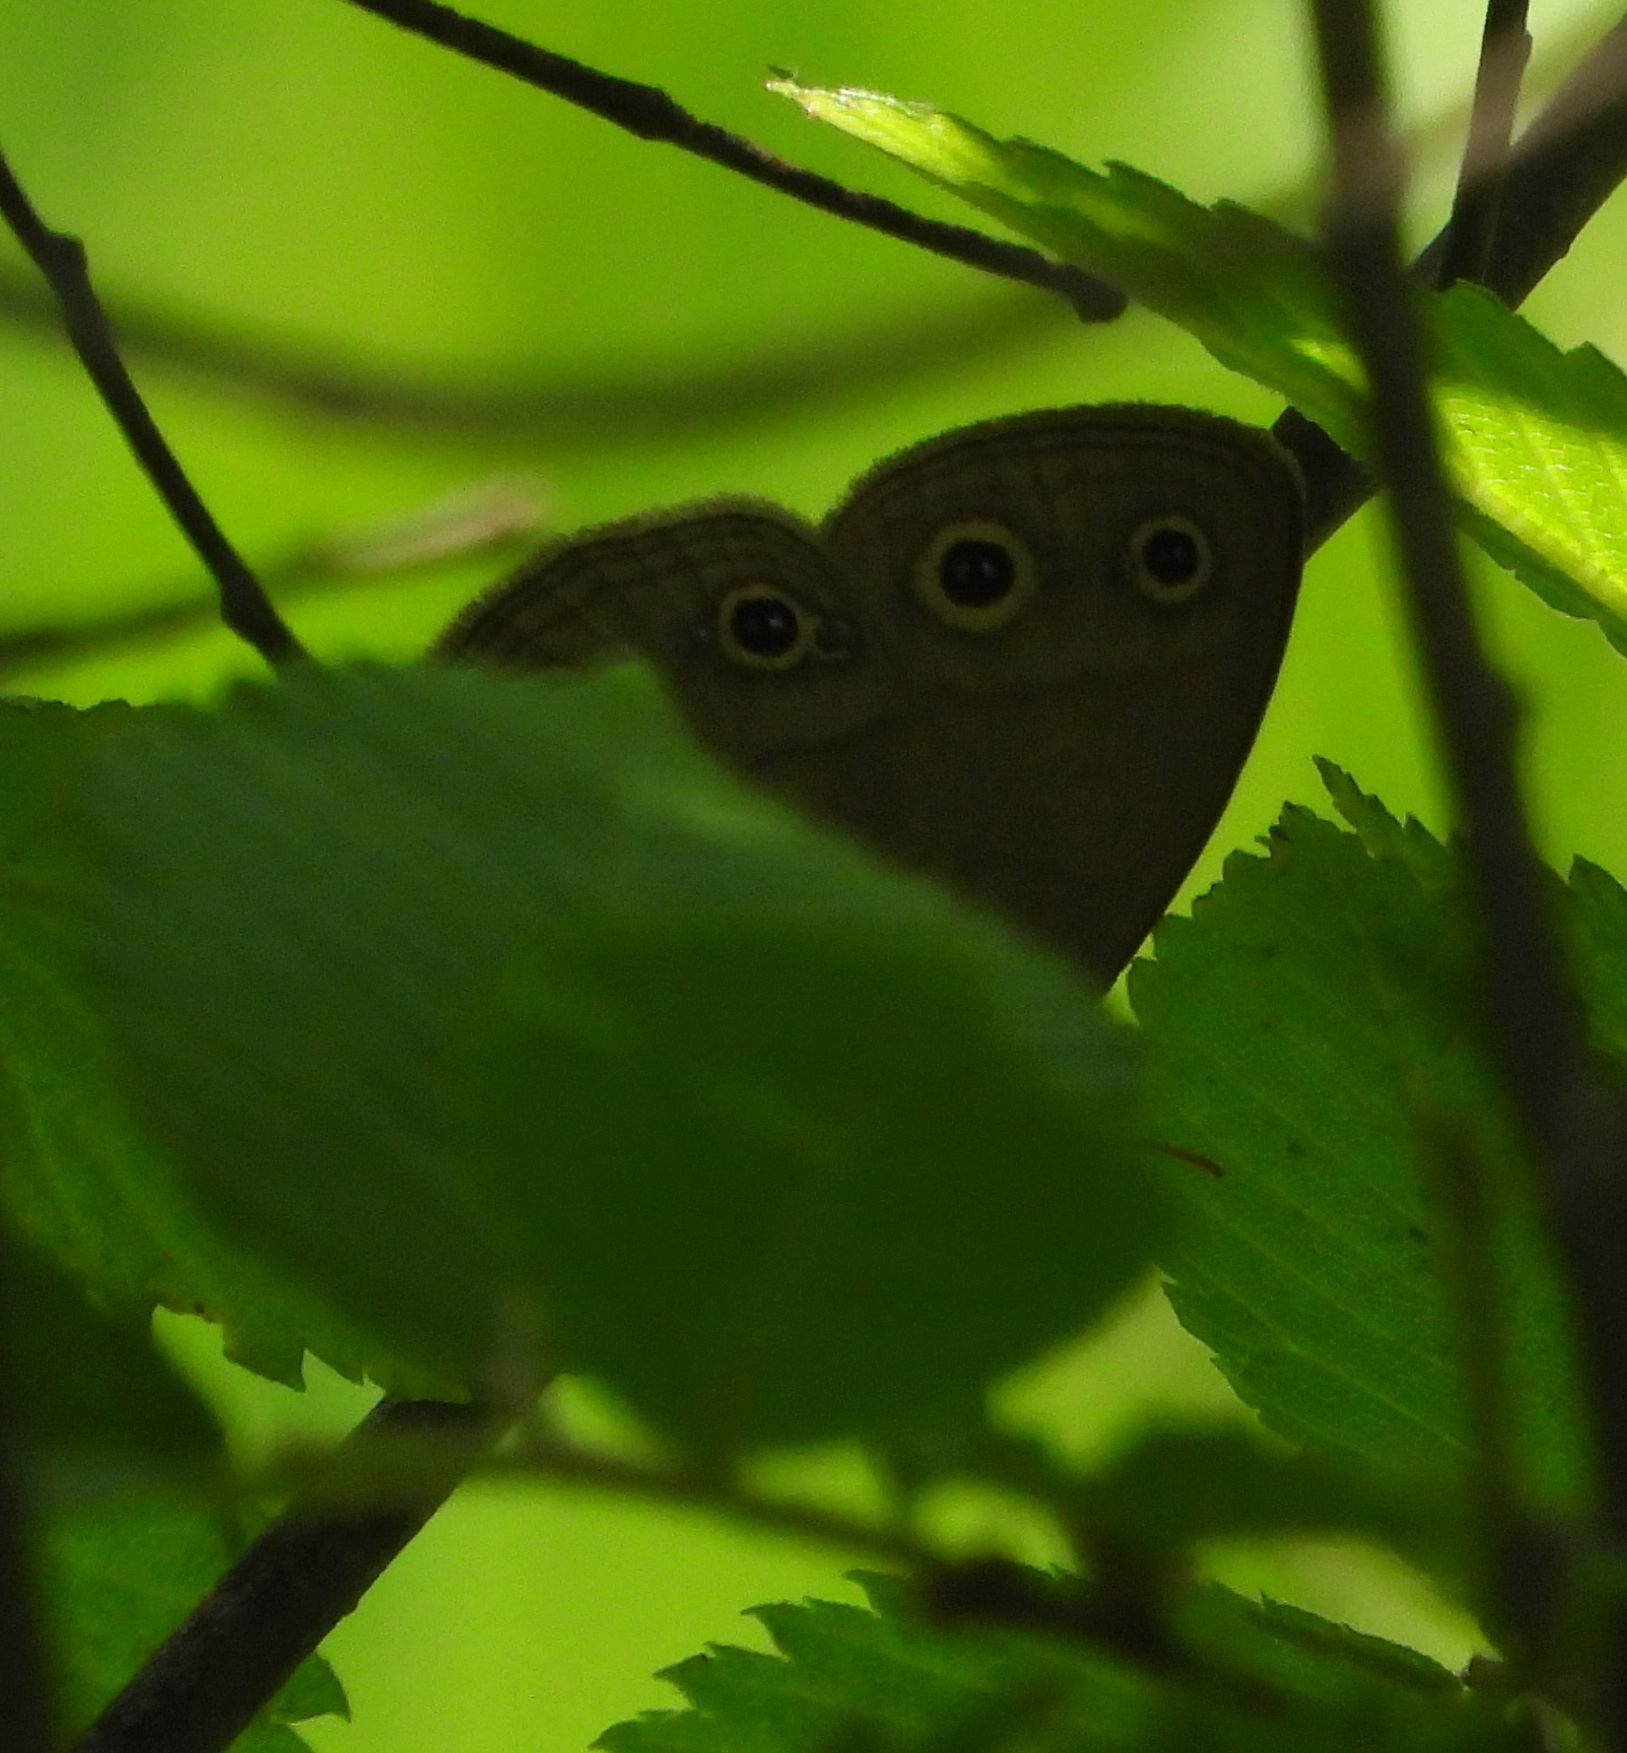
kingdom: Animalia
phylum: Arthropoda
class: Insecta
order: Lepidoptera
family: Nymphalidae
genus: Euptychia
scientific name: Euptychia cymela
